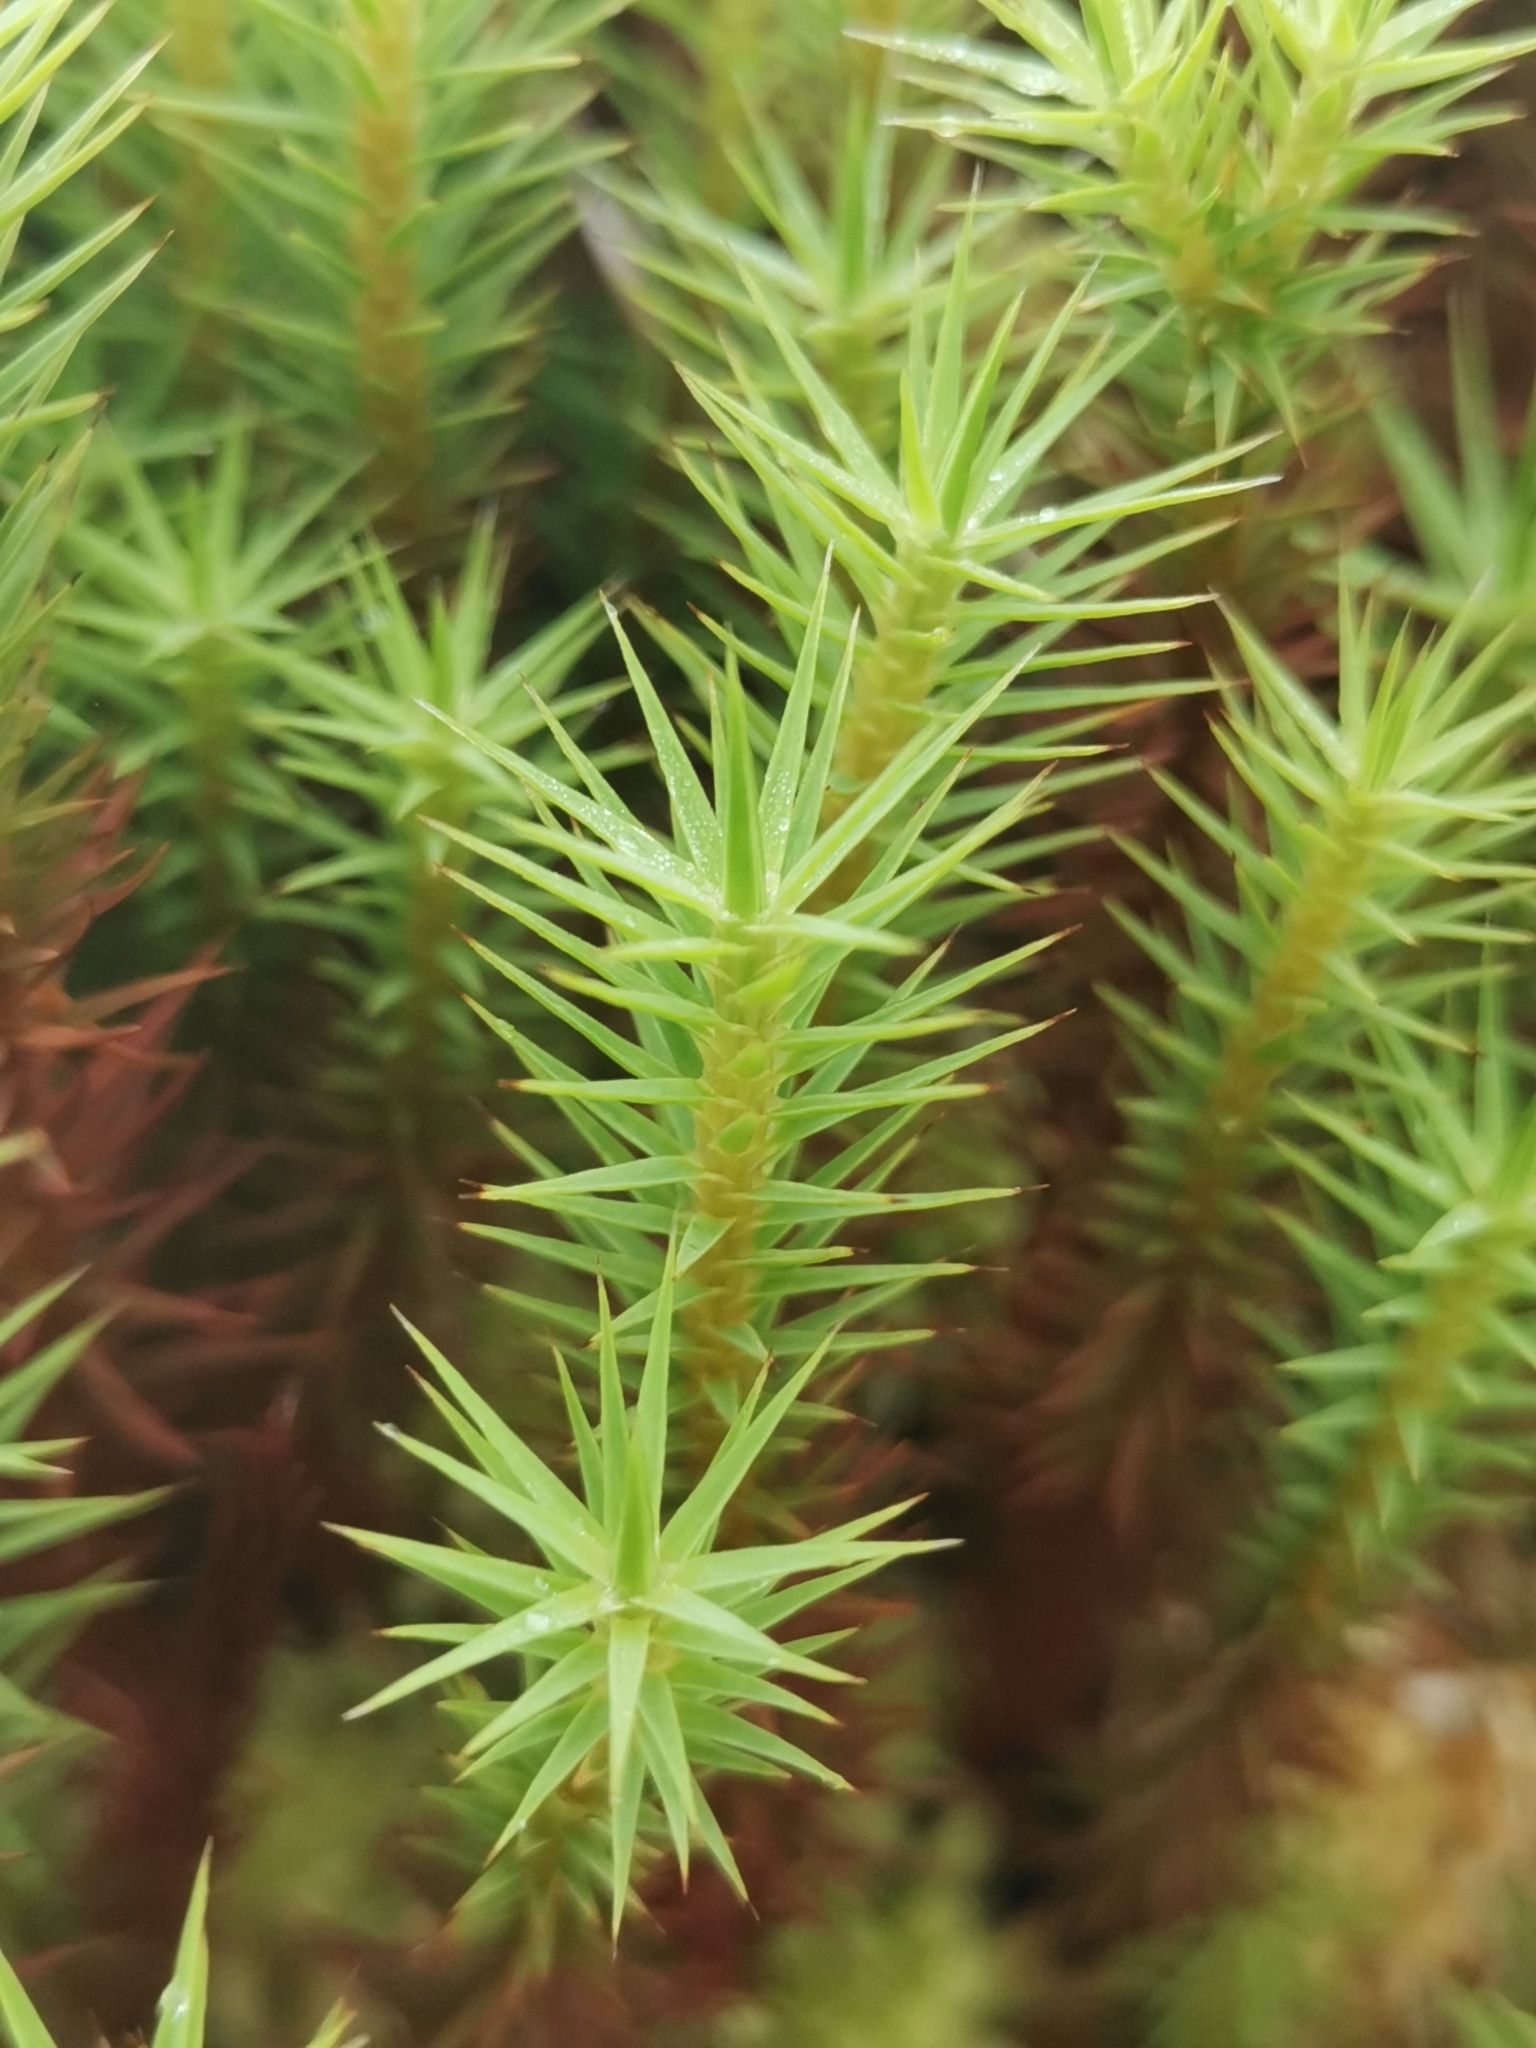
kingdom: Plantae
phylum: Bryophyta
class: Polytrichopsida
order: Polytrichales
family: Polytrichaceae
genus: Polytrichum
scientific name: Polytrichum strictum
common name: Bog haircap moss
